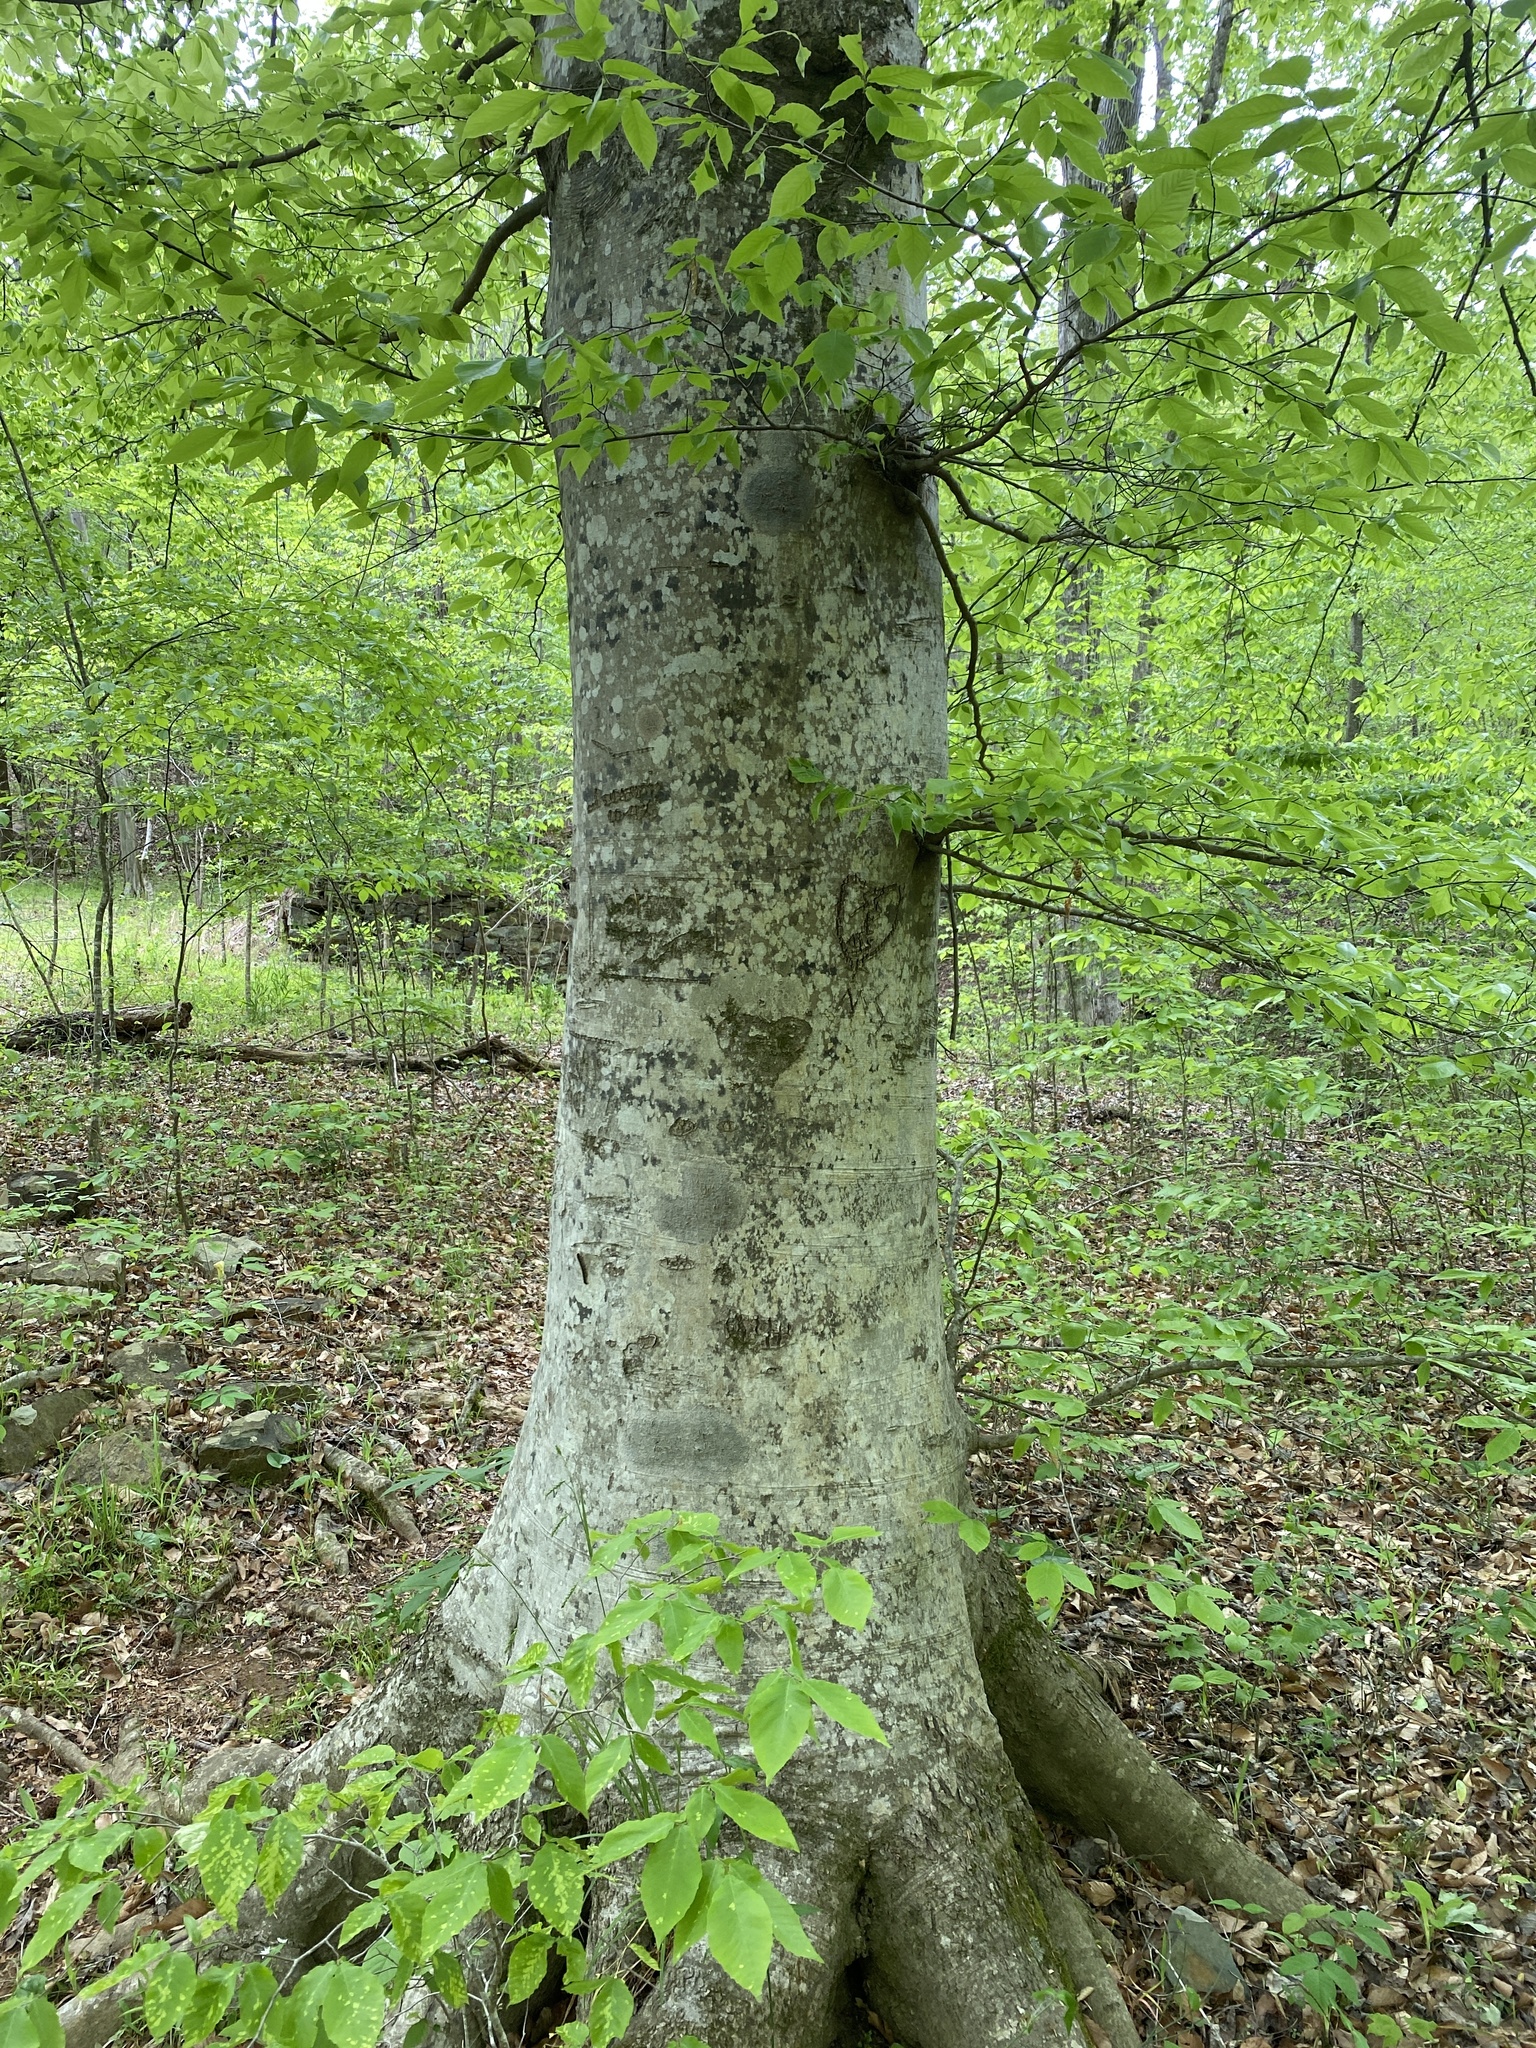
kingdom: Plantae
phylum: Tracheophyta
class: Magnoliopsida
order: Fagales
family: Fagaceae
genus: Fagus
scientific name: Fagus grandifolia
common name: American beech
